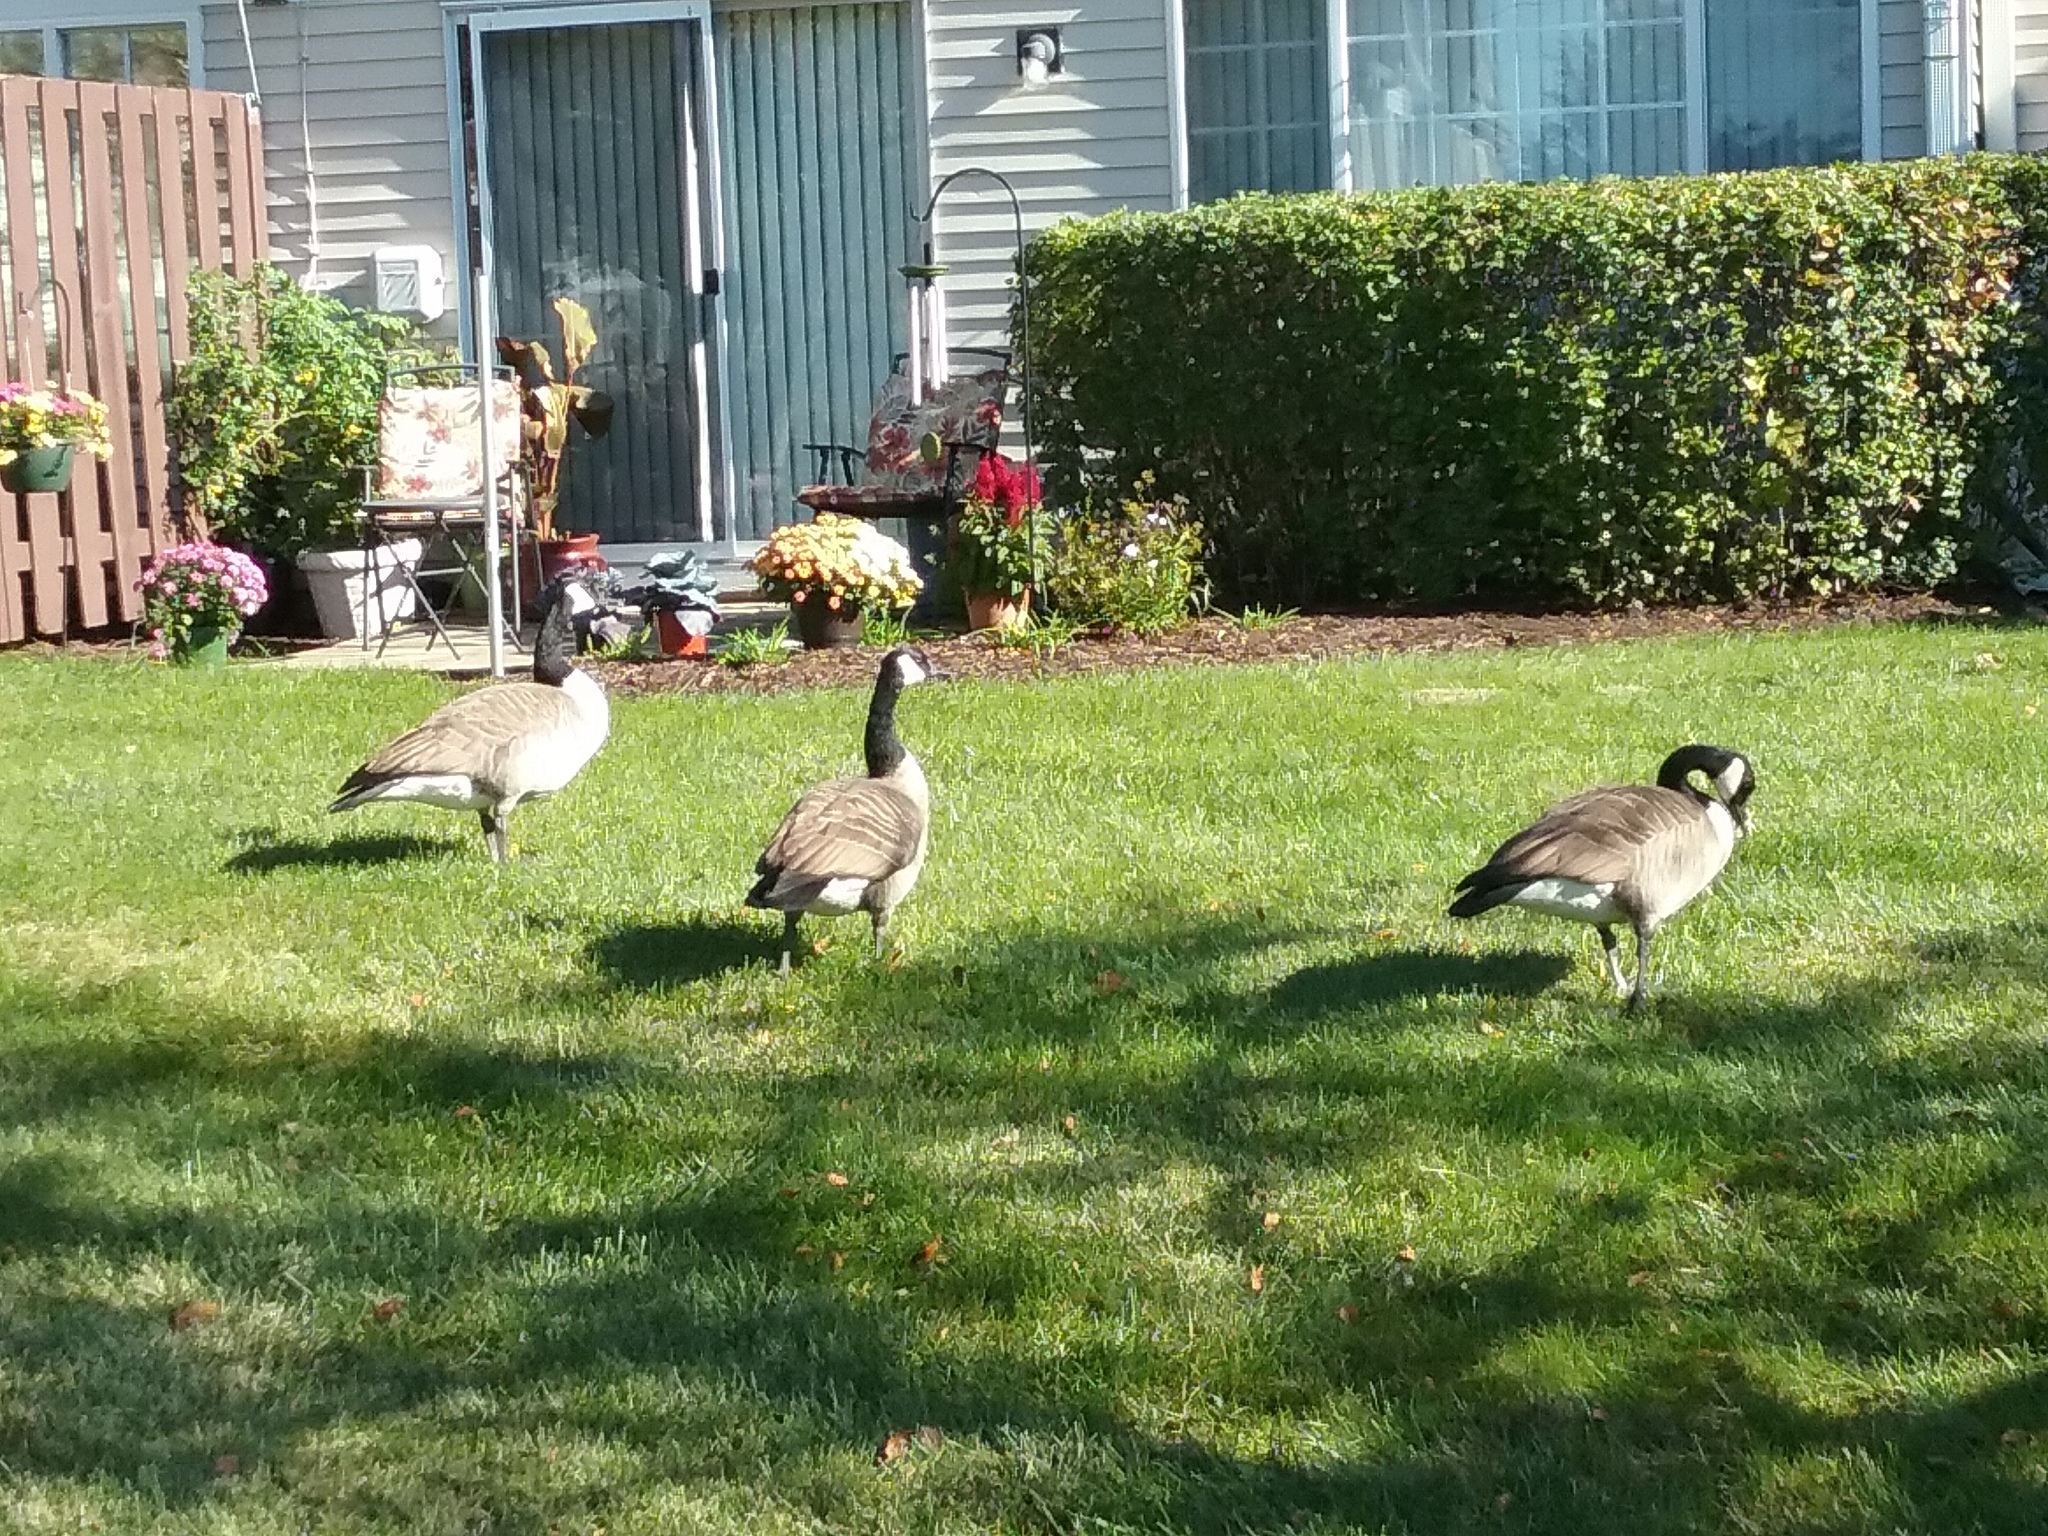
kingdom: Animalia
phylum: Chordata
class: Aves
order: Anseriformes
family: Anatidae
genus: Branta
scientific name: Branta canadensis
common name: Canada goose
